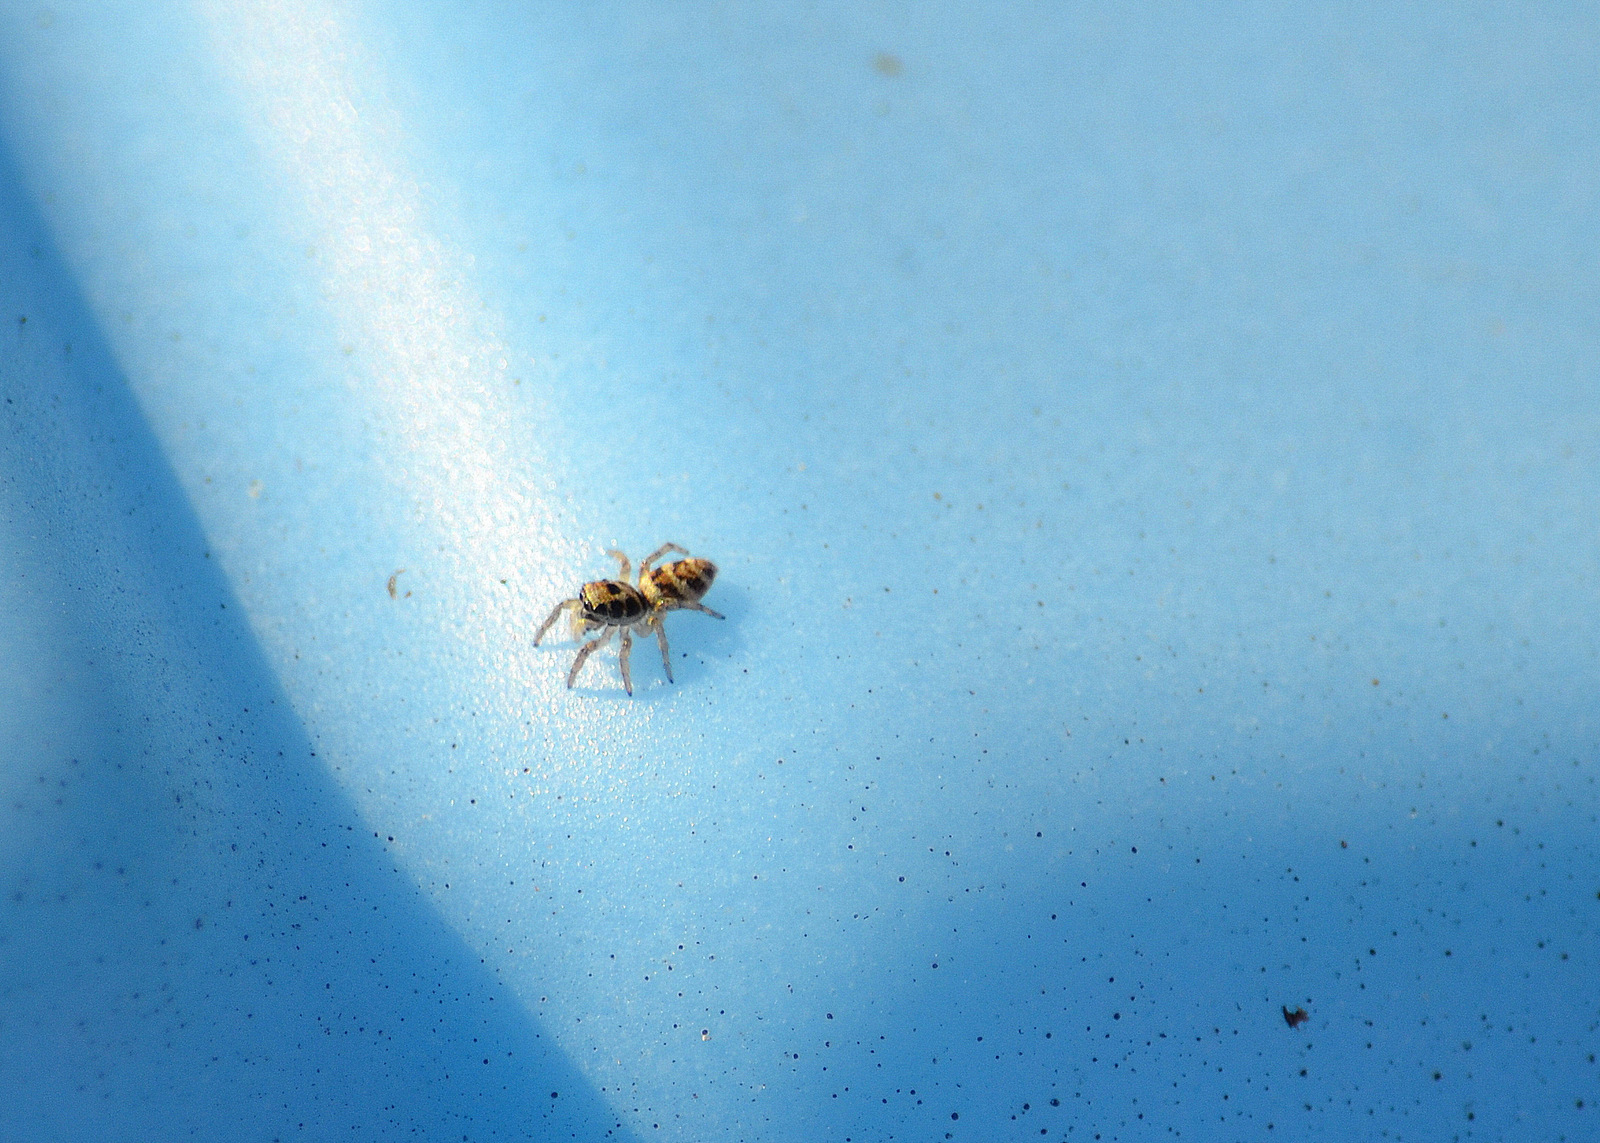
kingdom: Animalia
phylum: Arthropoda
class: Arachnida
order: Araneae
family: Salticidae
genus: Salticus
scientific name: Salticus scenicus
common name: Zebra jumper
